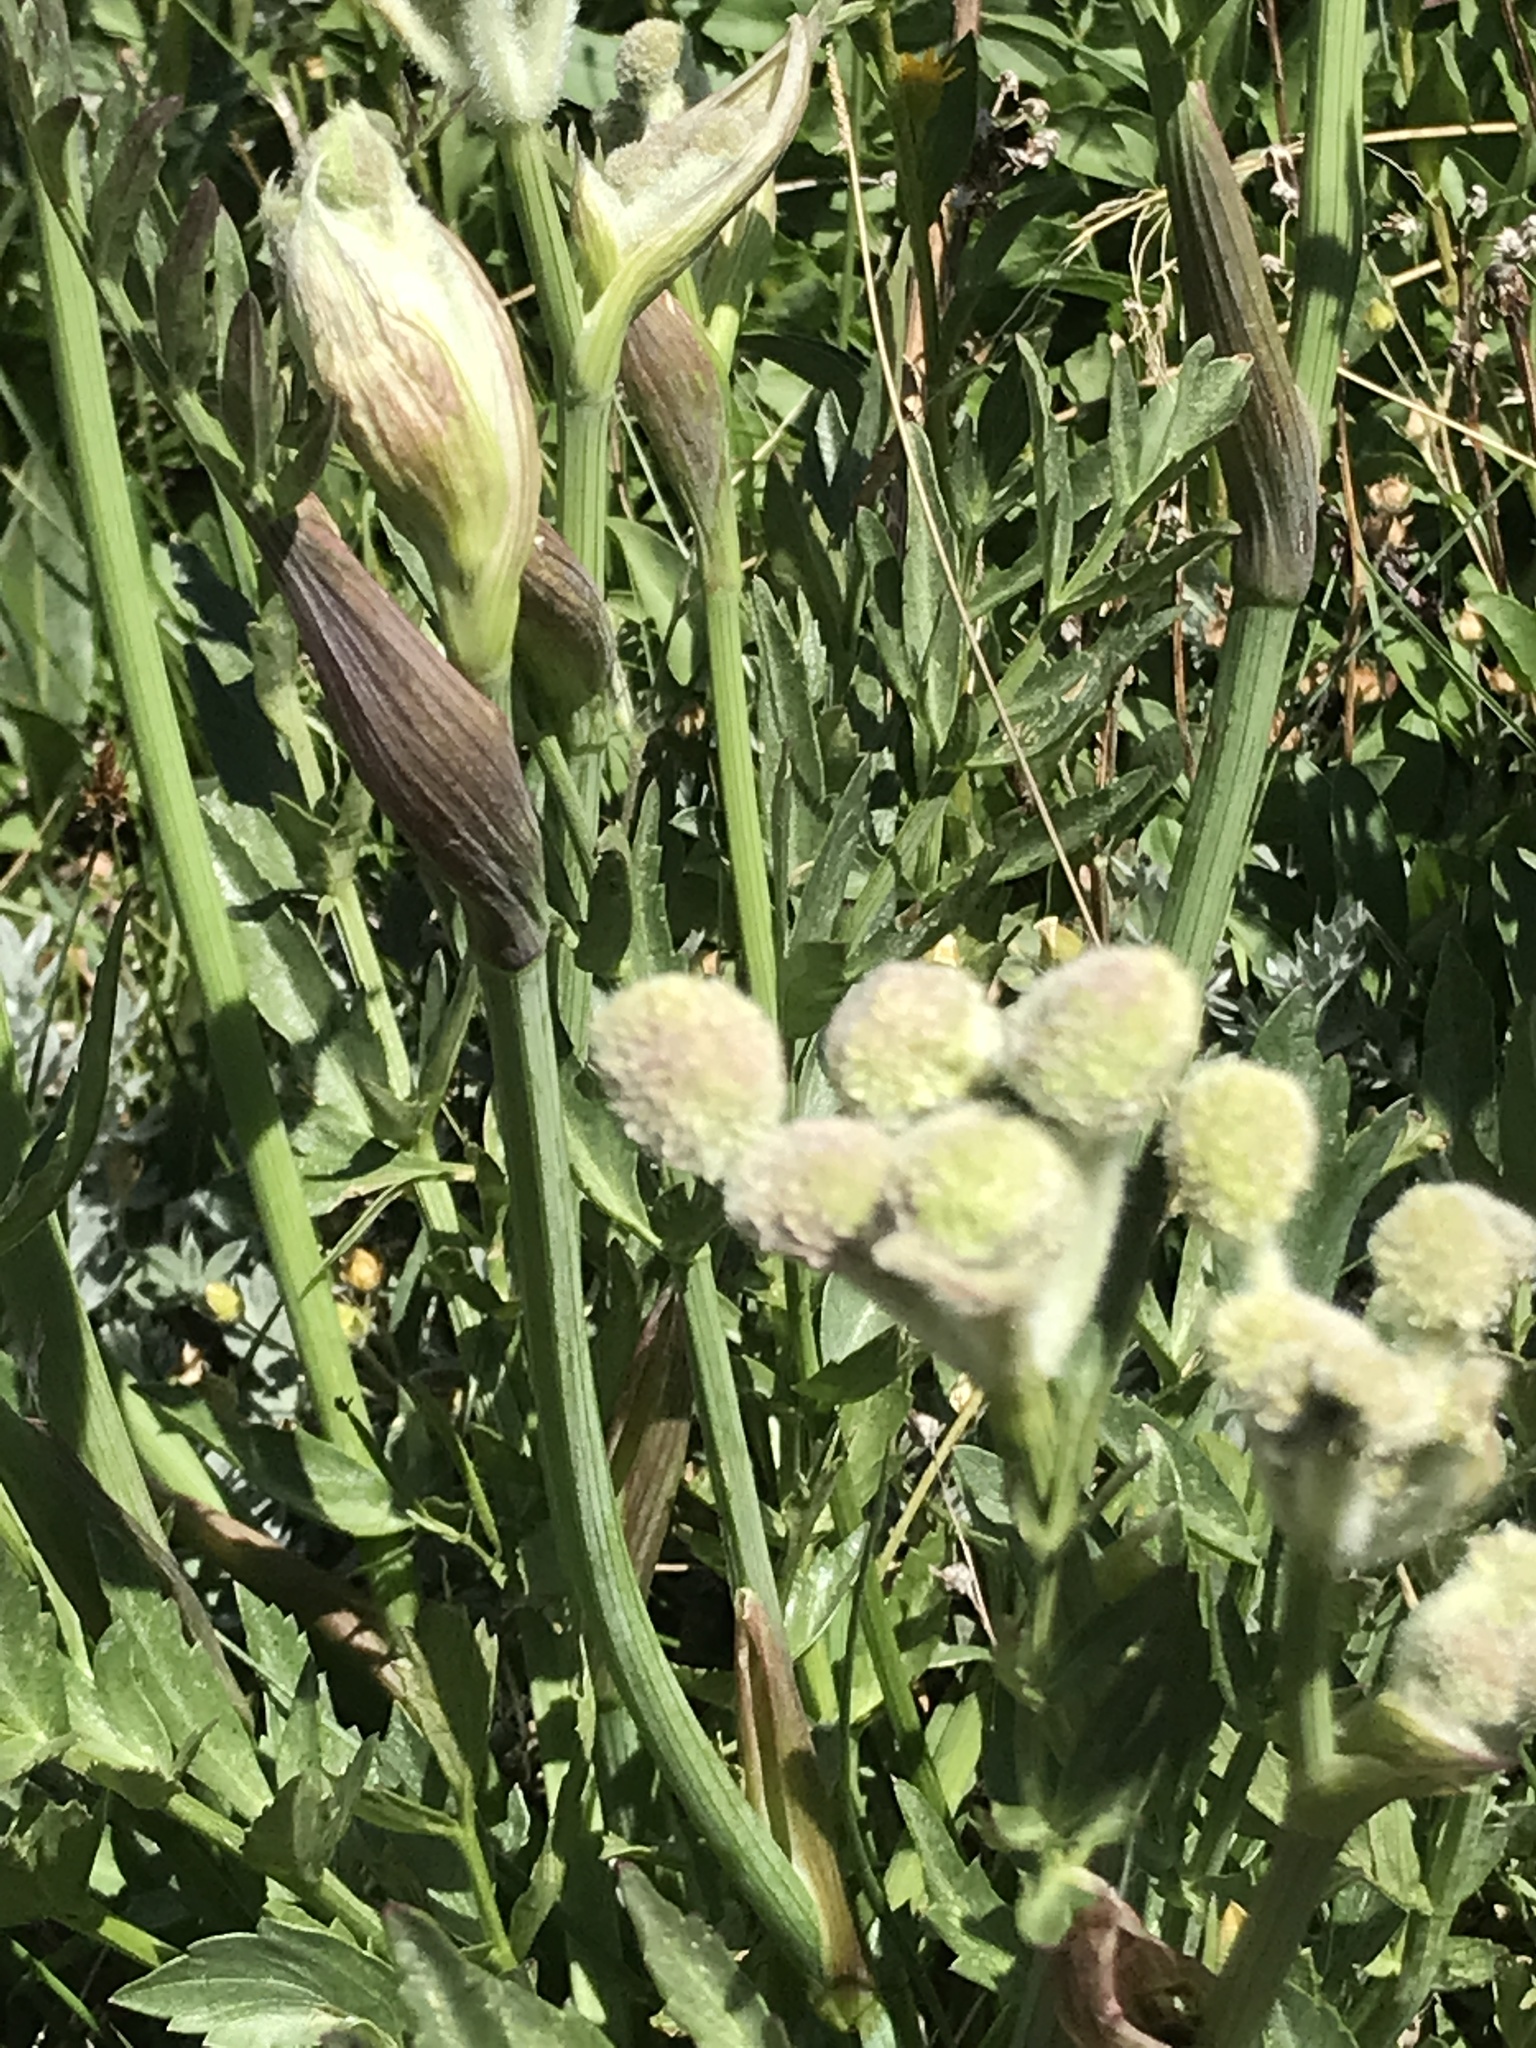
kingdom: Plantae
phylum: Tracheophyta
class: Magnoliopsida
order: Apiales
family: Apiaceae
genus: Angelica
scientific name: Angelica capitellata
